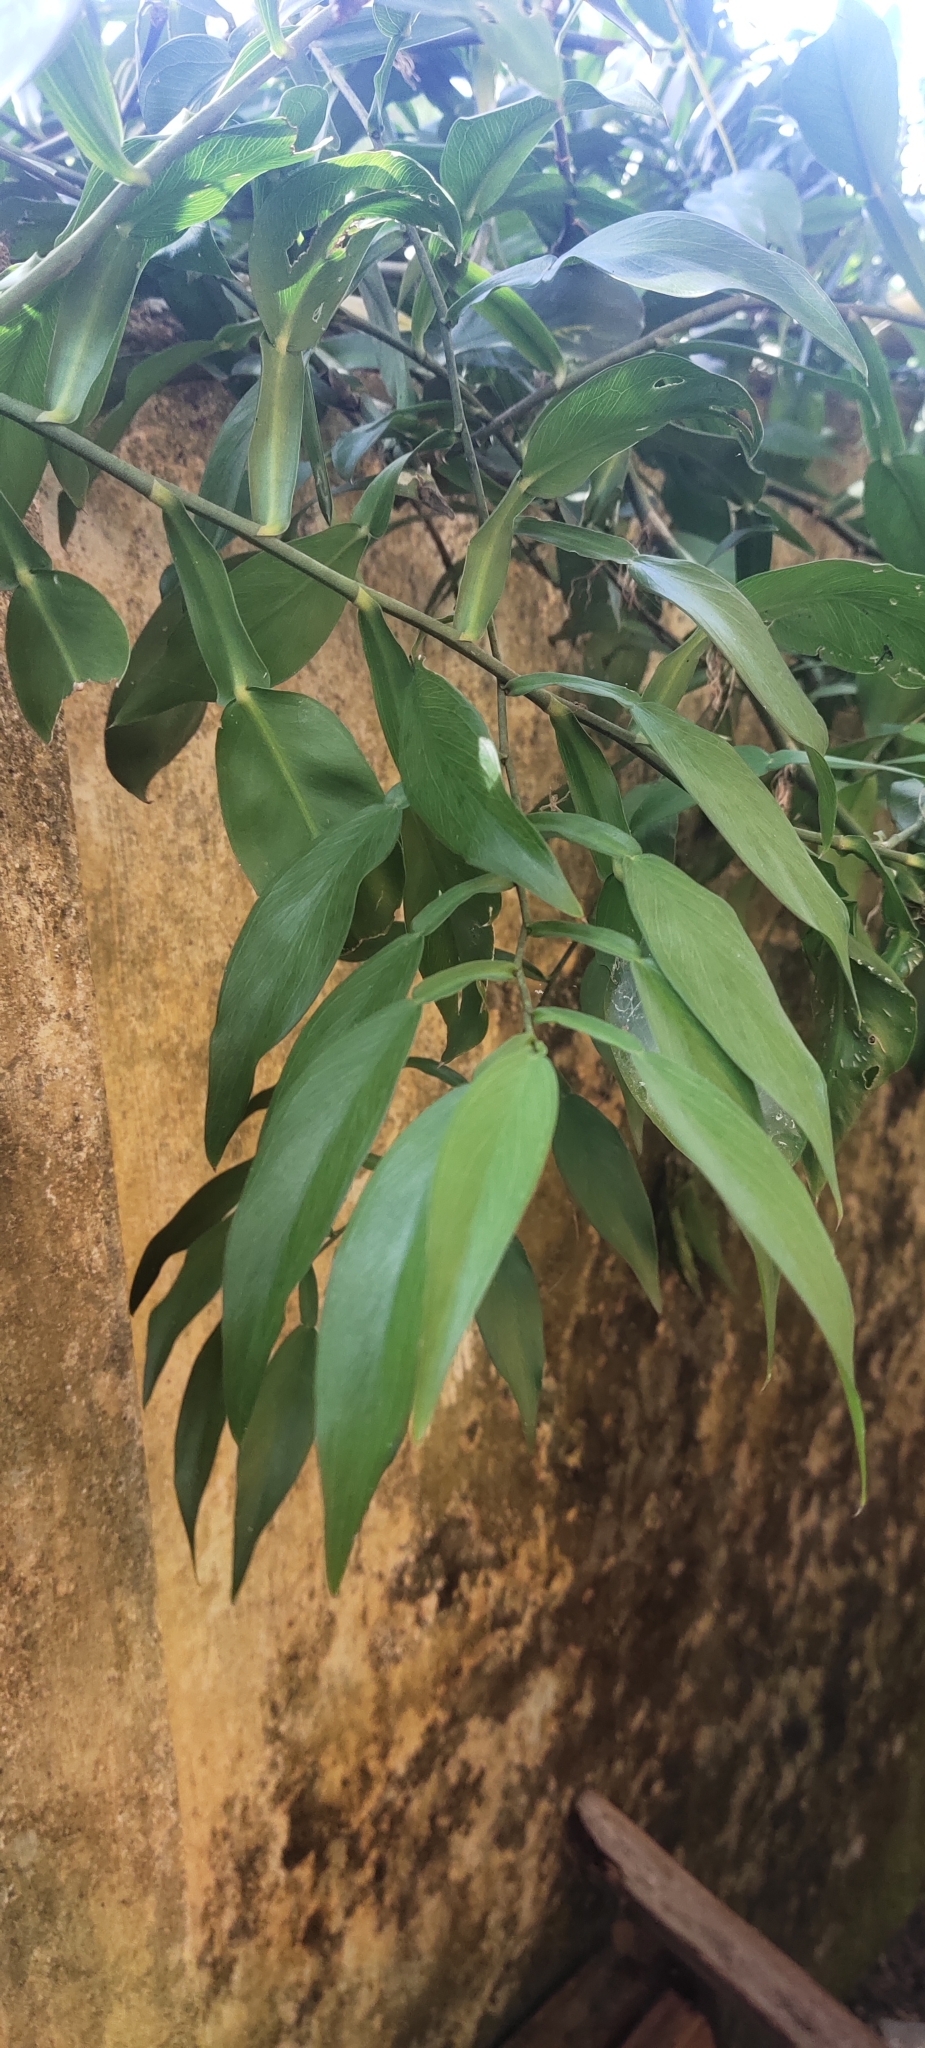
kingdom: Plantae
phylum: Tracheophyta
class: Liliopsida
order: Alismatales
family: Araceae
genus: Pothos
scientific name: Pothos chinensis
